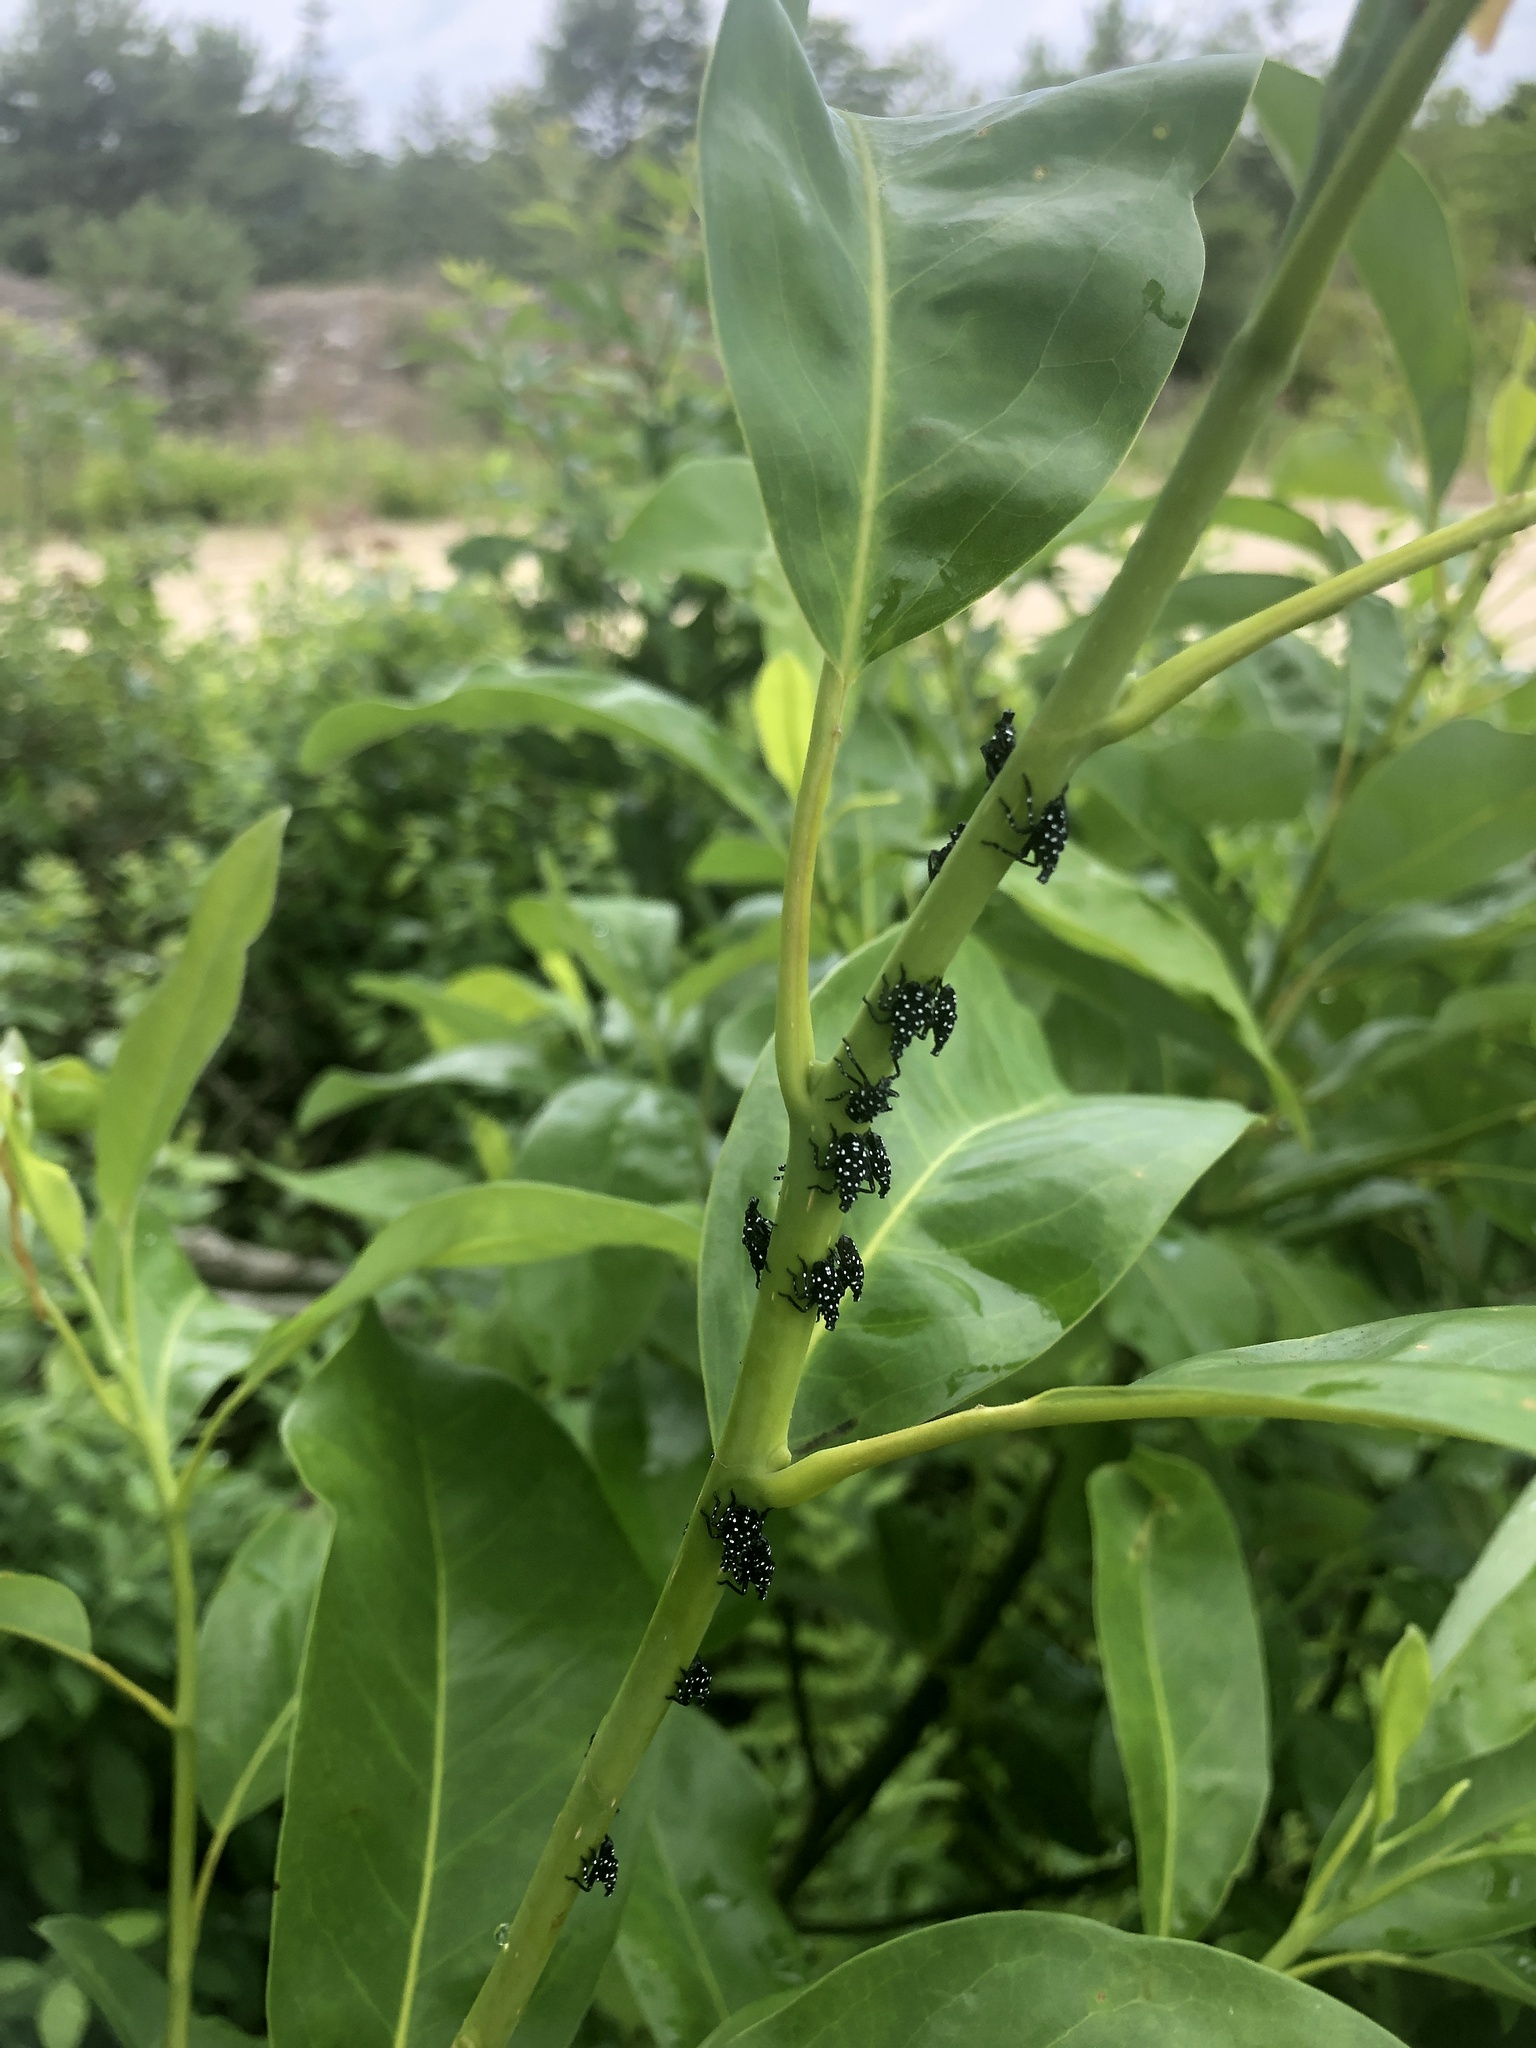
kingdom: Animalia
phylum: Arthropoda
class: Insecta
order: Hemiptera
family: Fulgoridae
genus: Lycorma
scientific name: Lycorma delicatula
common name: Spotted lanternfly
